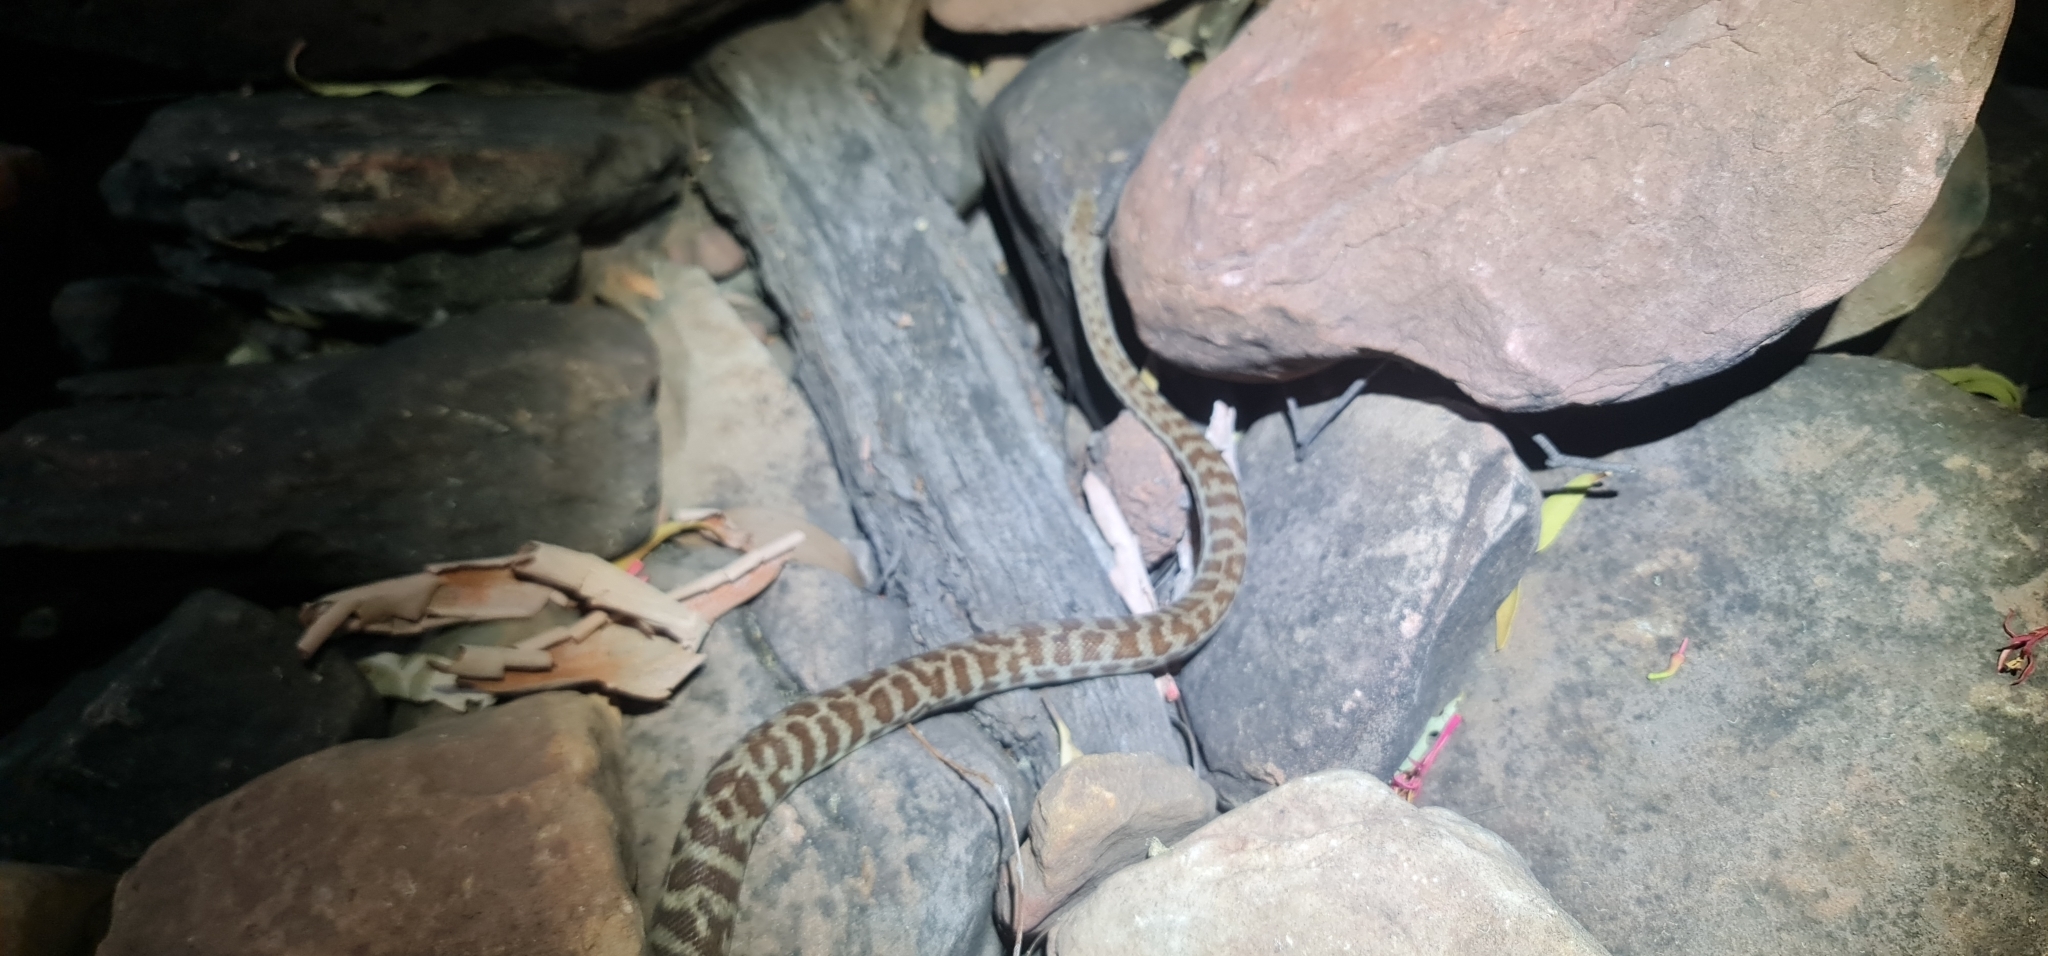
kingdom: Animalia
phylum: Chordata
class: Squamata
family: Pythonidae
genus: Antaresia
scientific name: Antaresia childreni
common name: Children's python
